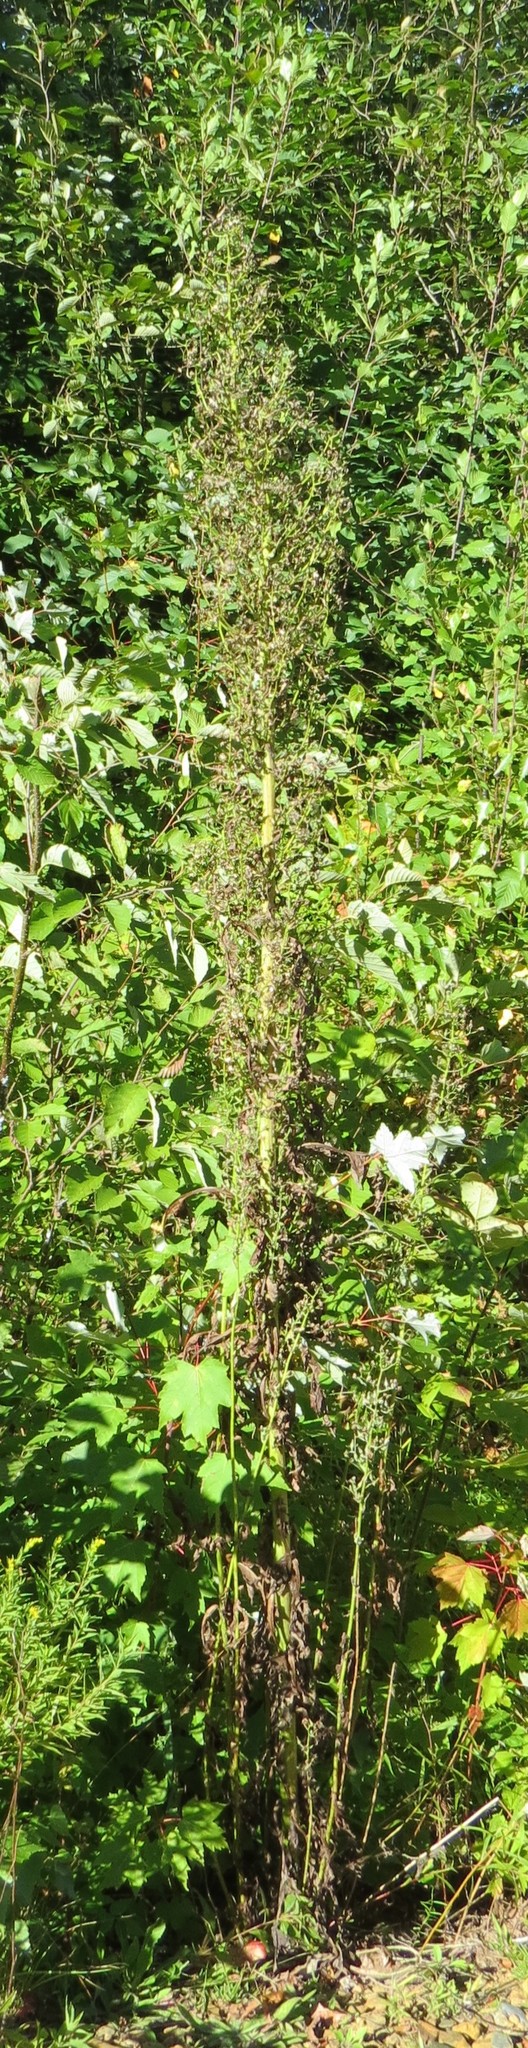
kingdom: Plantae
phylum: Tracheophyta
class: Magnoliopsida
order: Asterales
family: Asteraceae
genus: Lactuca
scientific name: Lactuca biennis
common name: Blue wood lettuce
